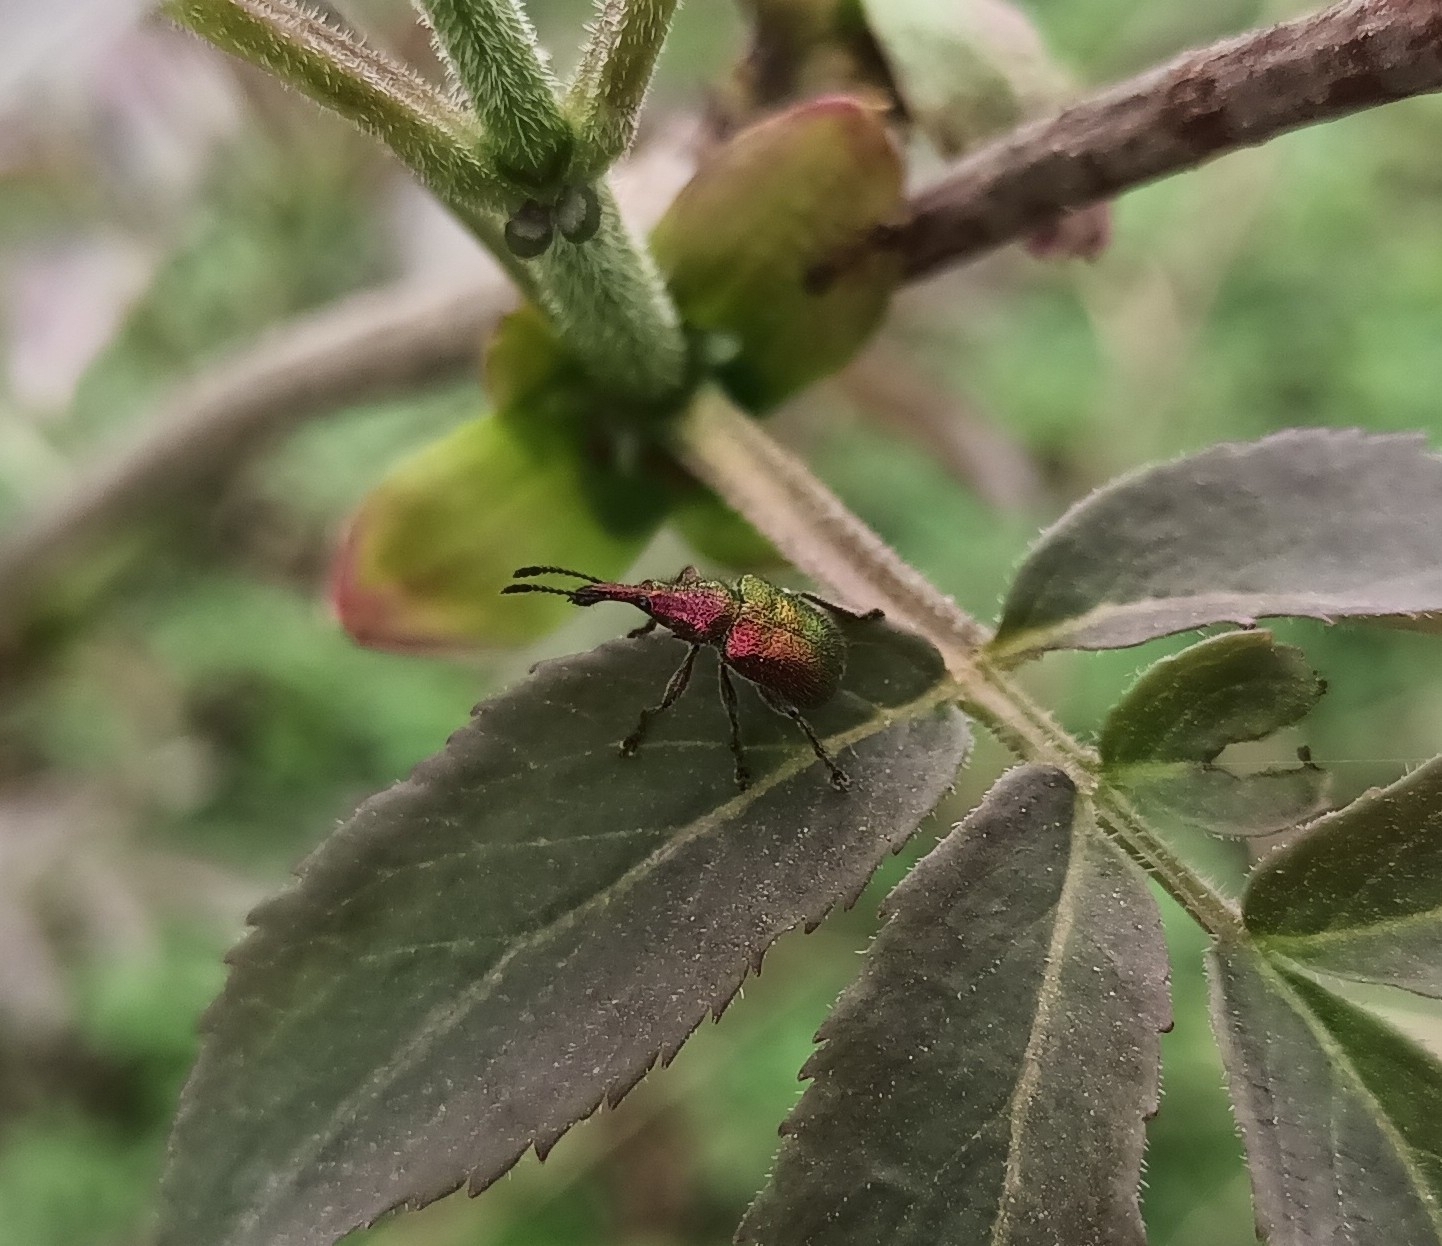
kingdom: Animalia
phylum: Arthropoda
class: Insecta
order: Coleoptera
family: Attelabidae
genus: Rhynchites
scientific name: Rhynchites auratus
